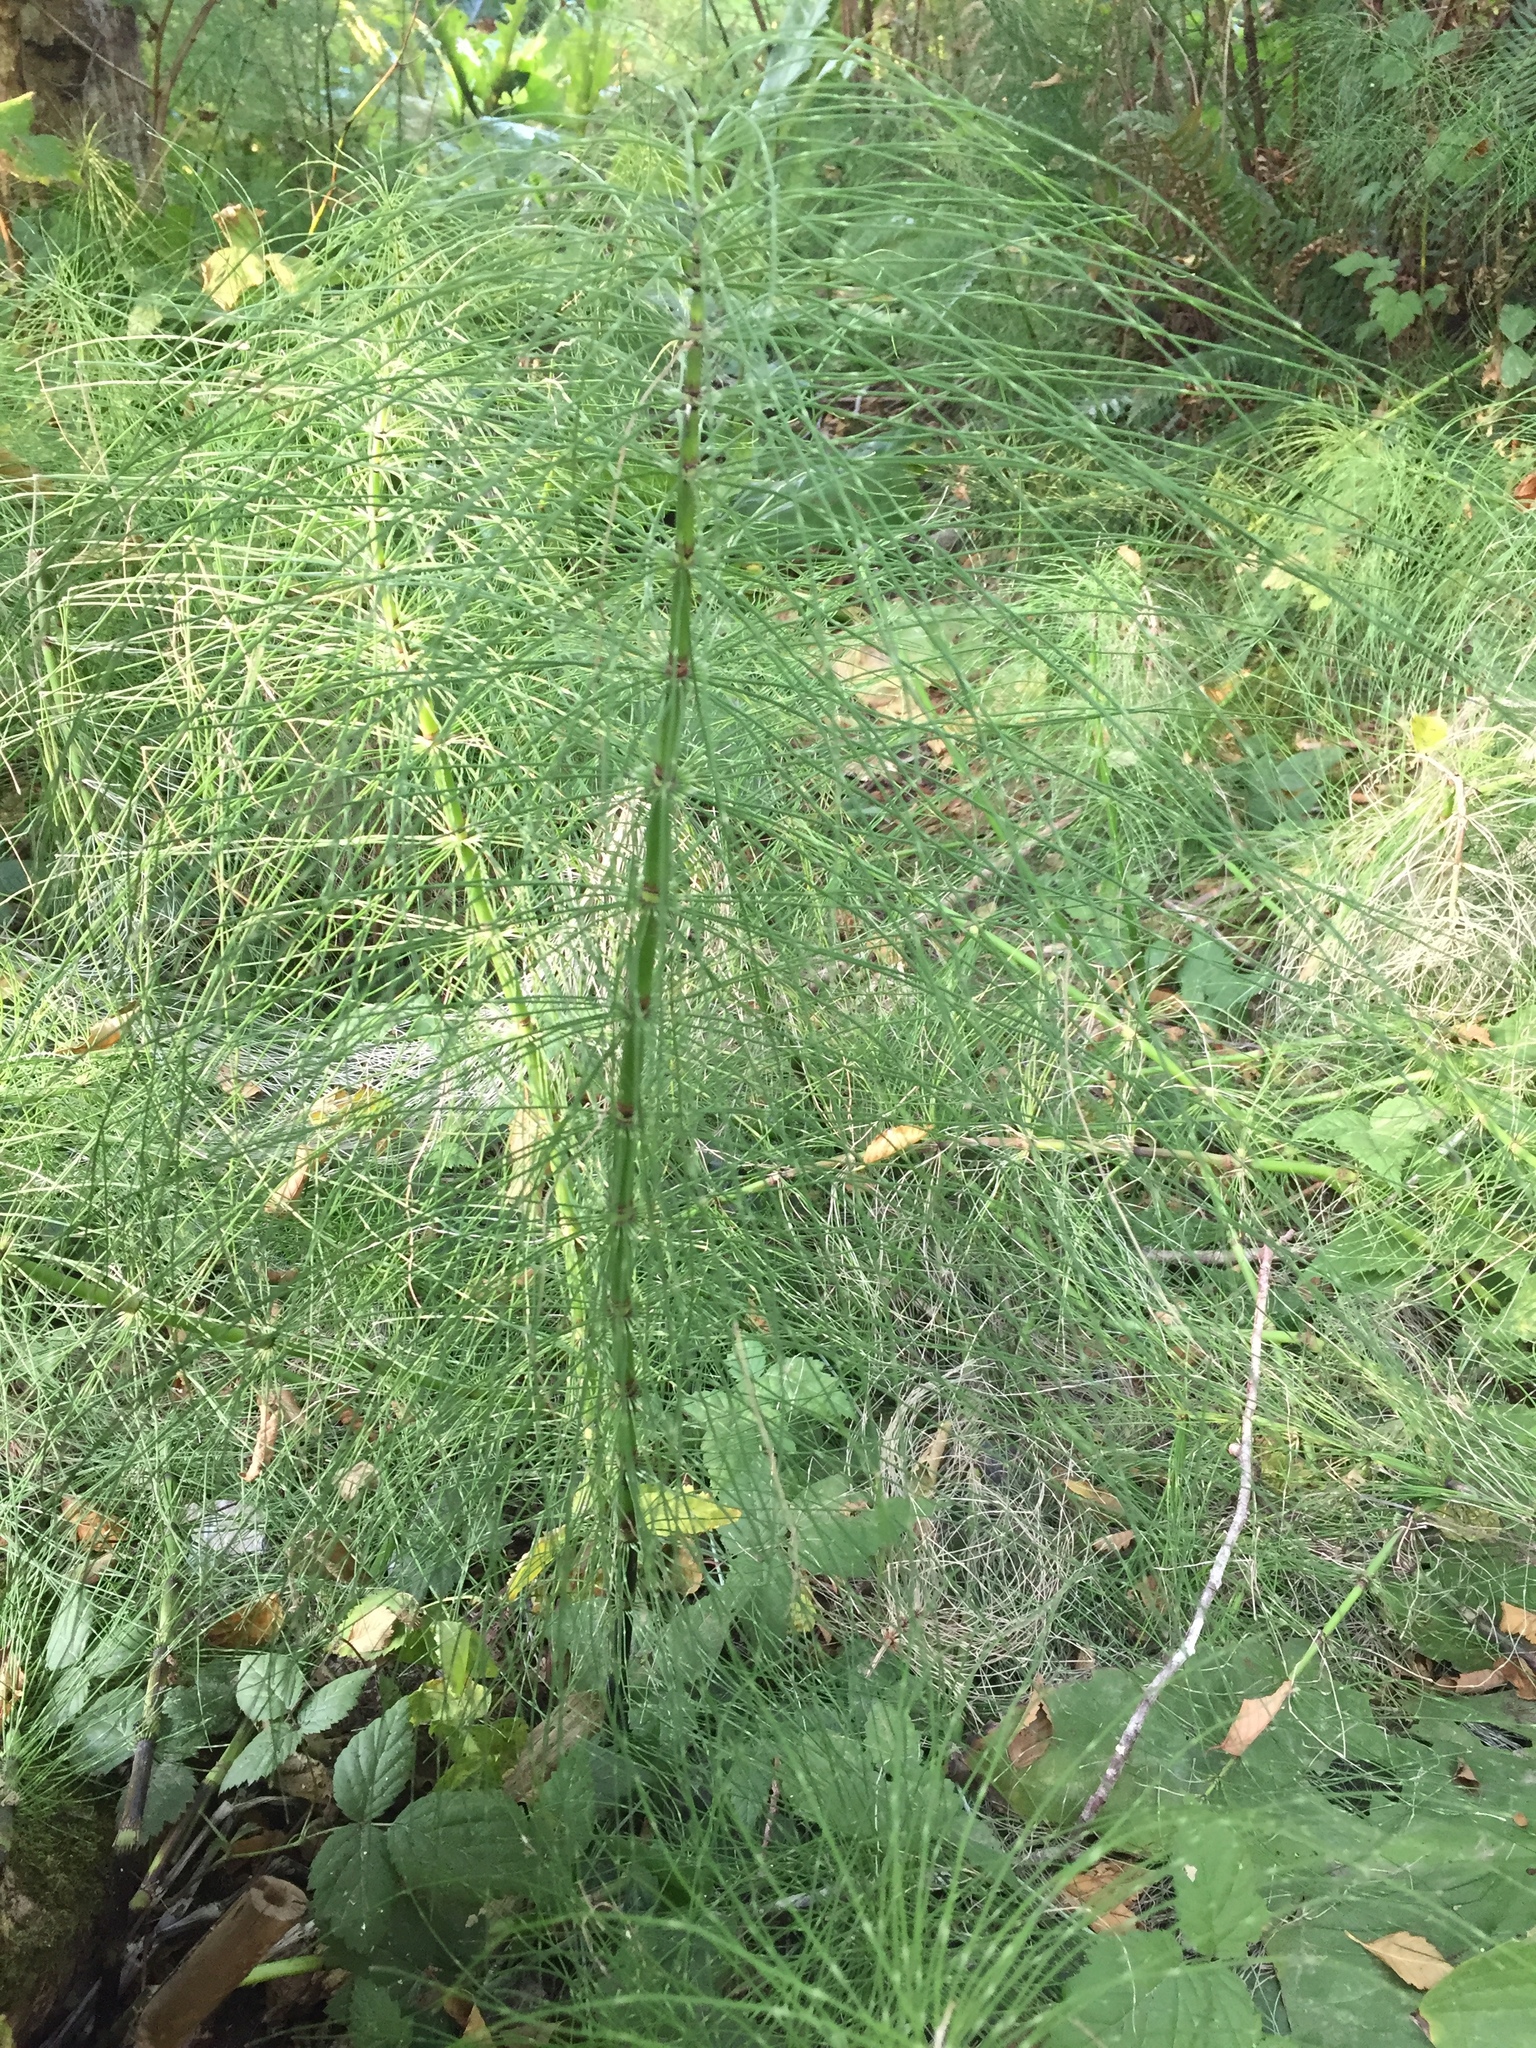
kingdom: Plantae
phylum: Tracheophyta
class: Polypodiopsida
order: Equisetales
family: Equisetaceae
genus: Equisetum
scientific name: Equisetum telmateia
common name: Great horsetail
